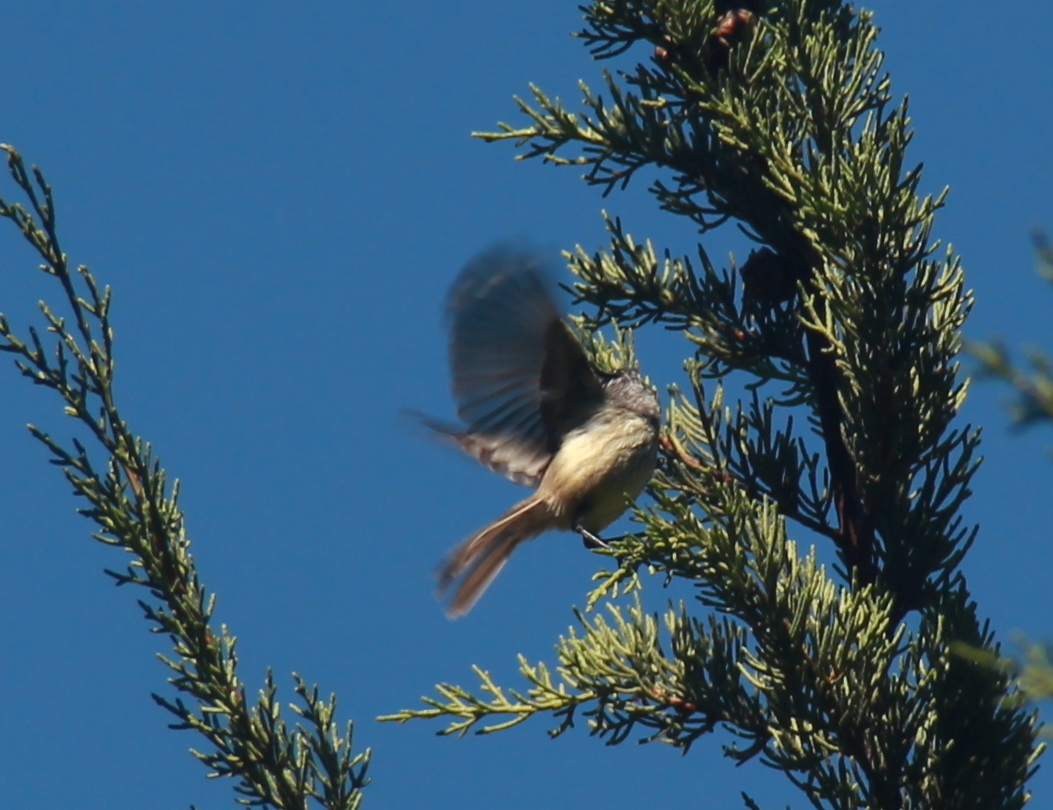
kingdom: Animalia
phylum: Chordata
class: Aves
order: Passeriformes
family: Tyrannidae
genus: Anairetes
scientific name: Anairetes parulus
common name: Tufted tit-tyrant
